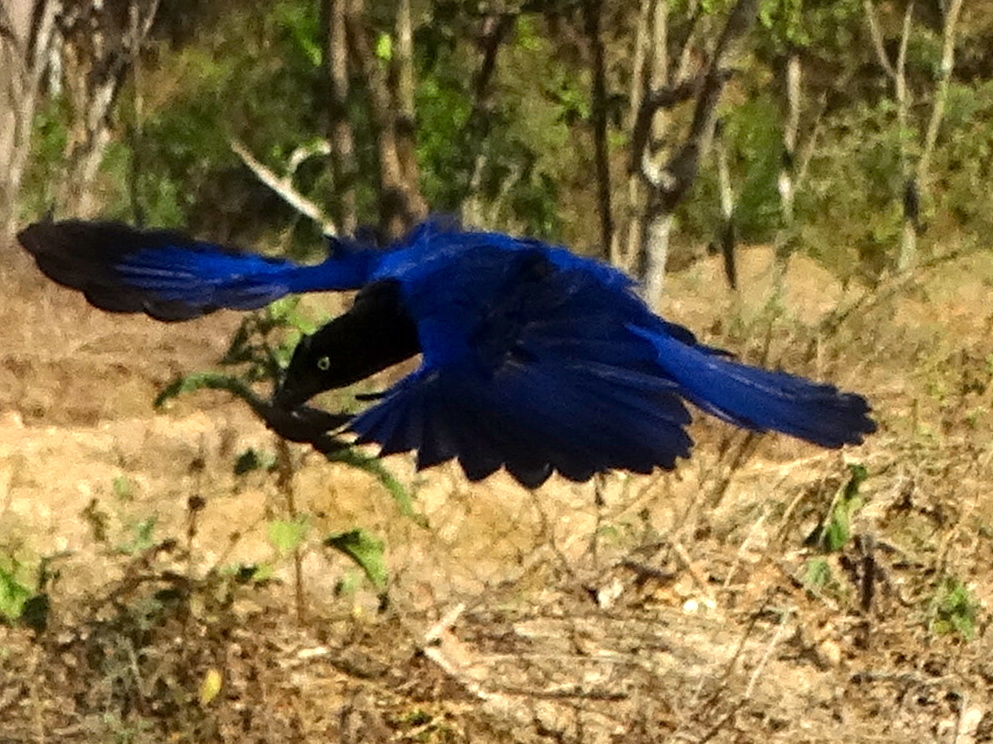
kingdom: Animalia
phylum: Chordata
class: Aves
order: Passeriformes
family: Corvidae
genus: Cyanocorax
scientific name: Cyanocorax beecheii
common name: Purplish-backed jay
